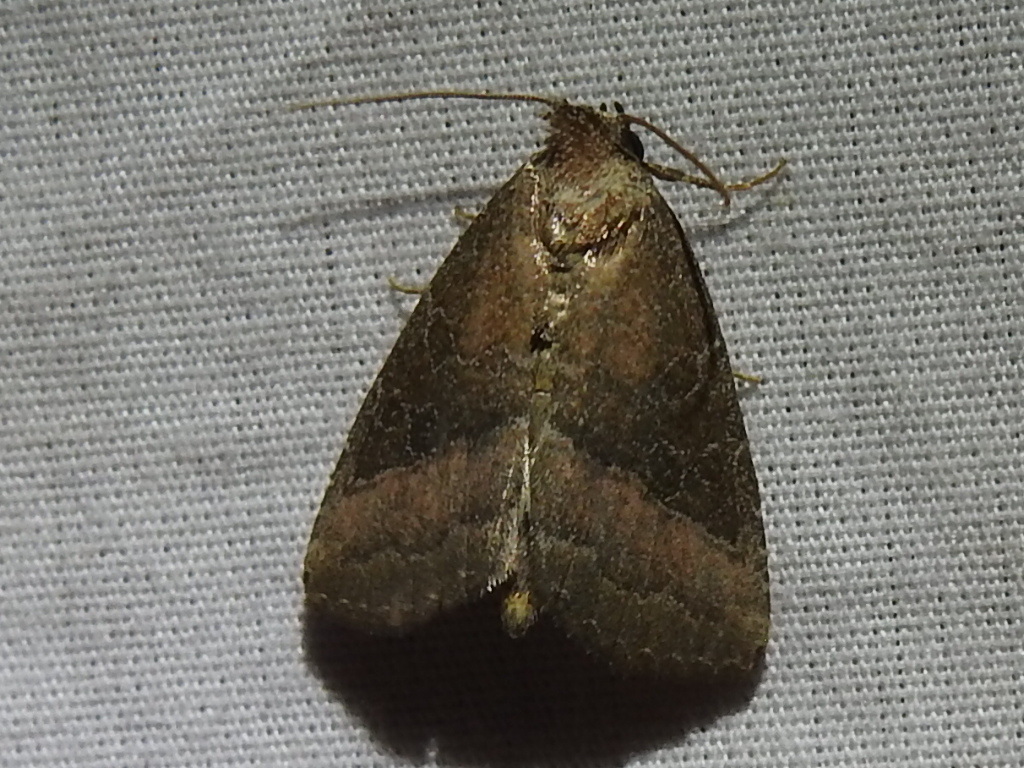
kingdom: Animalia
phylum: Arthropoda
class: Insecta
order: Lepidoptera
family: Noctuidae
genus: Ogdoconta
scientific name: Ogdoconta cinereola
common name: Common pinkband
